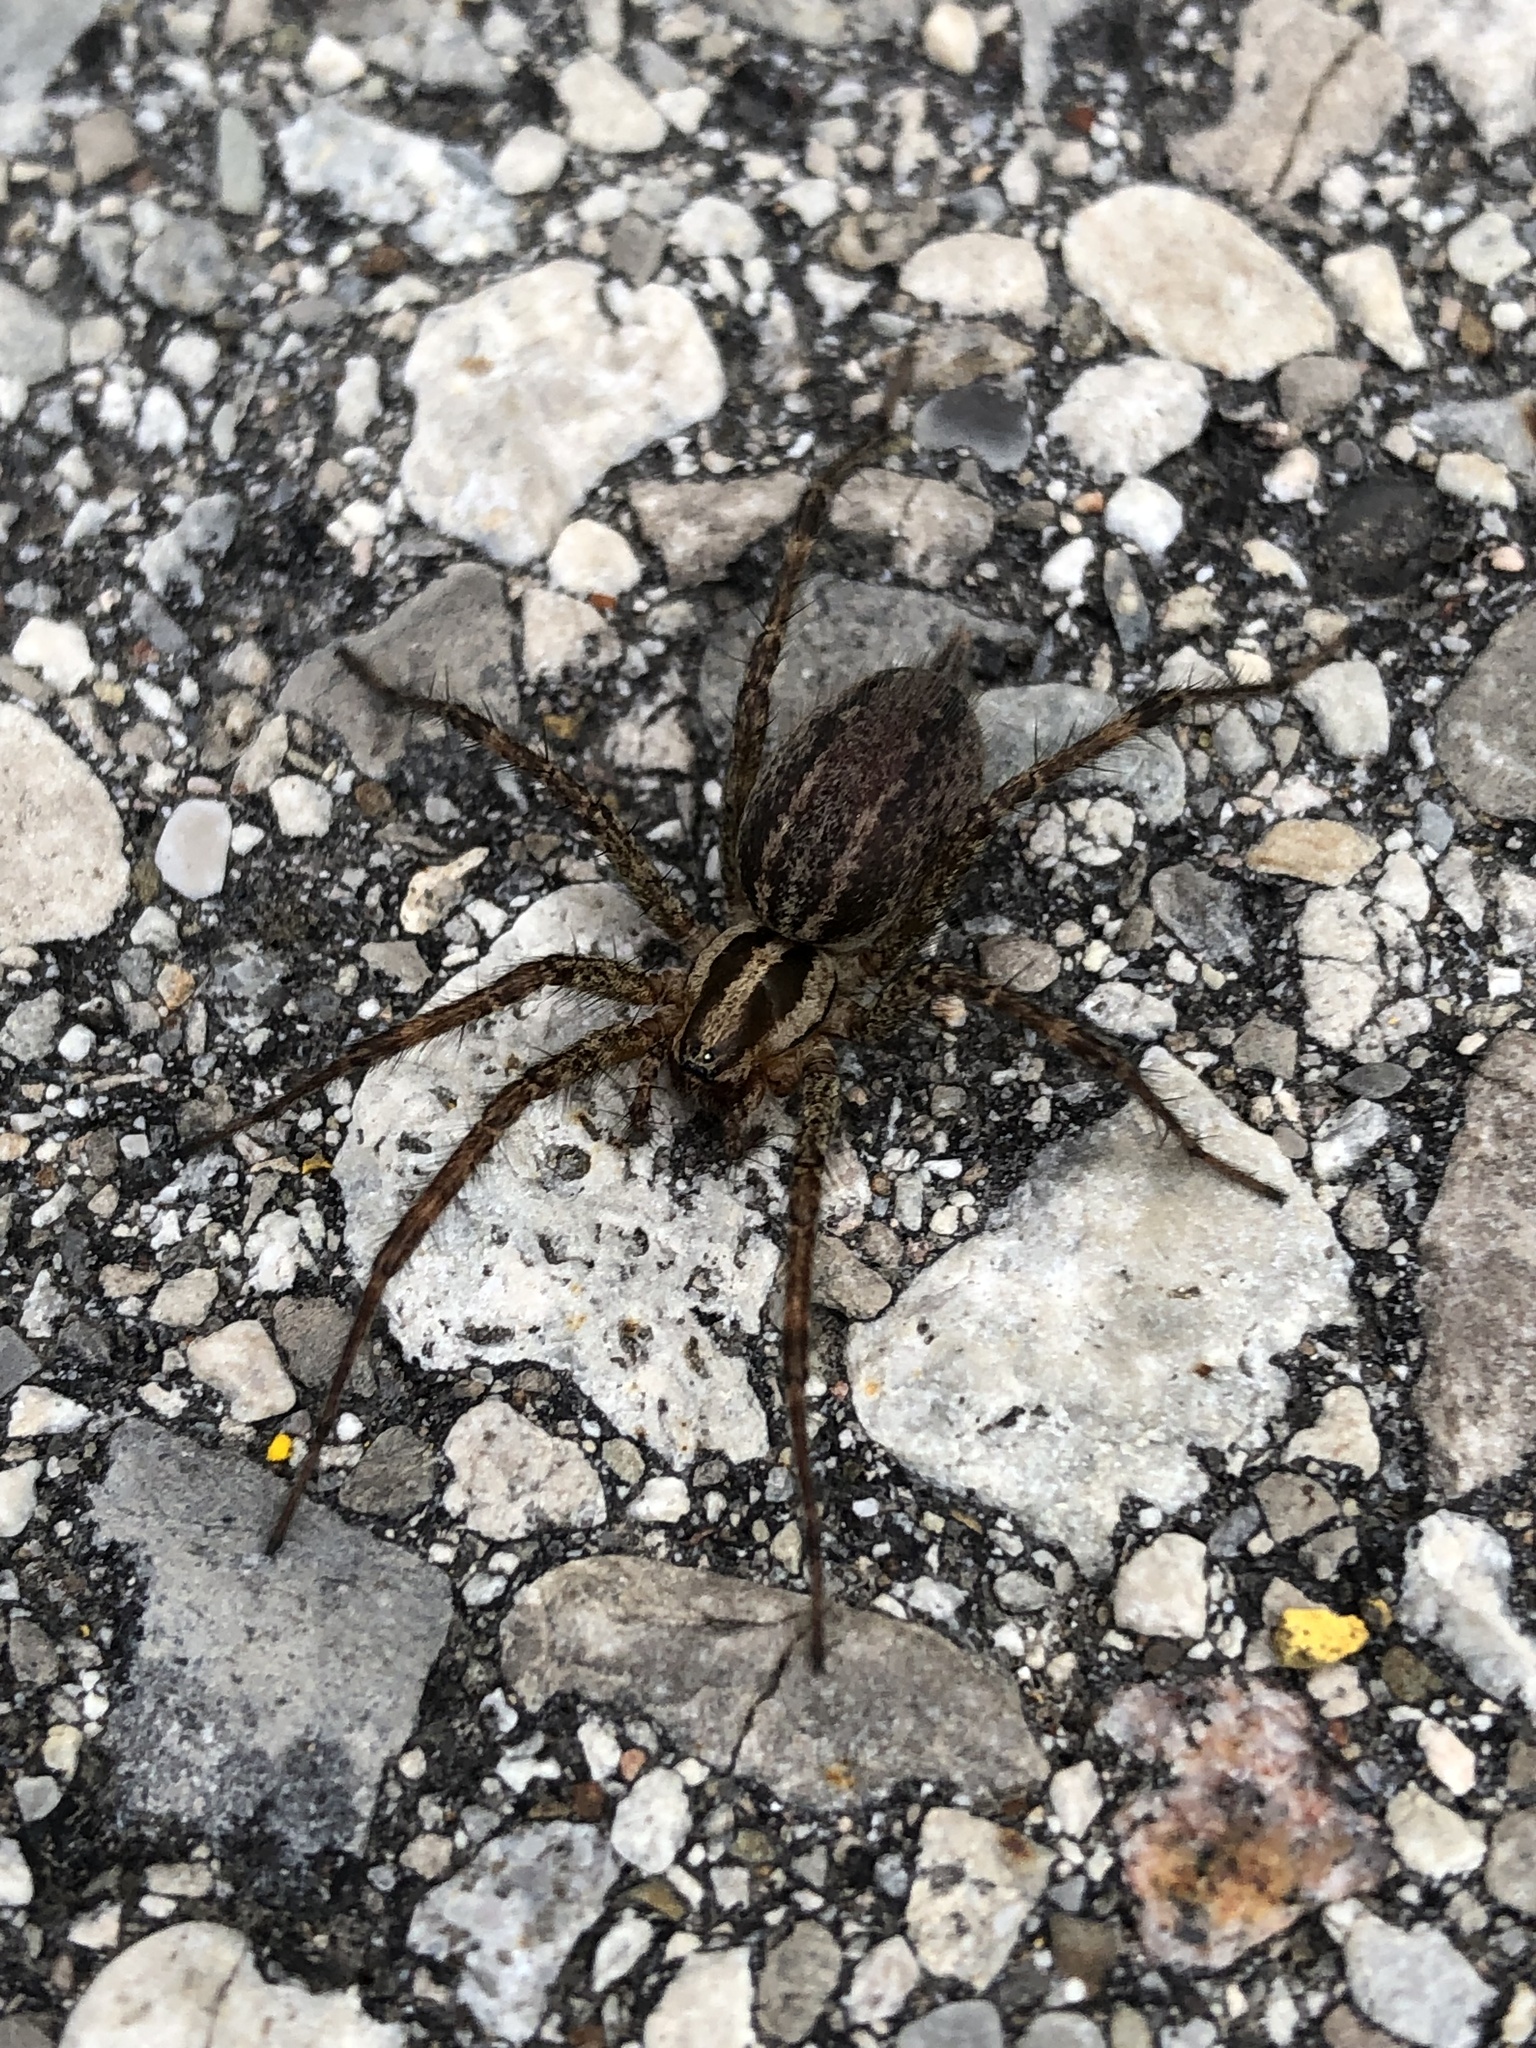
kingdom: Animalia
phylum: Arthropoda
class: Arachnida
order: Araneae
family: Agelenidae
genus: Agelenopsis
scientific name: Agelenopsis
